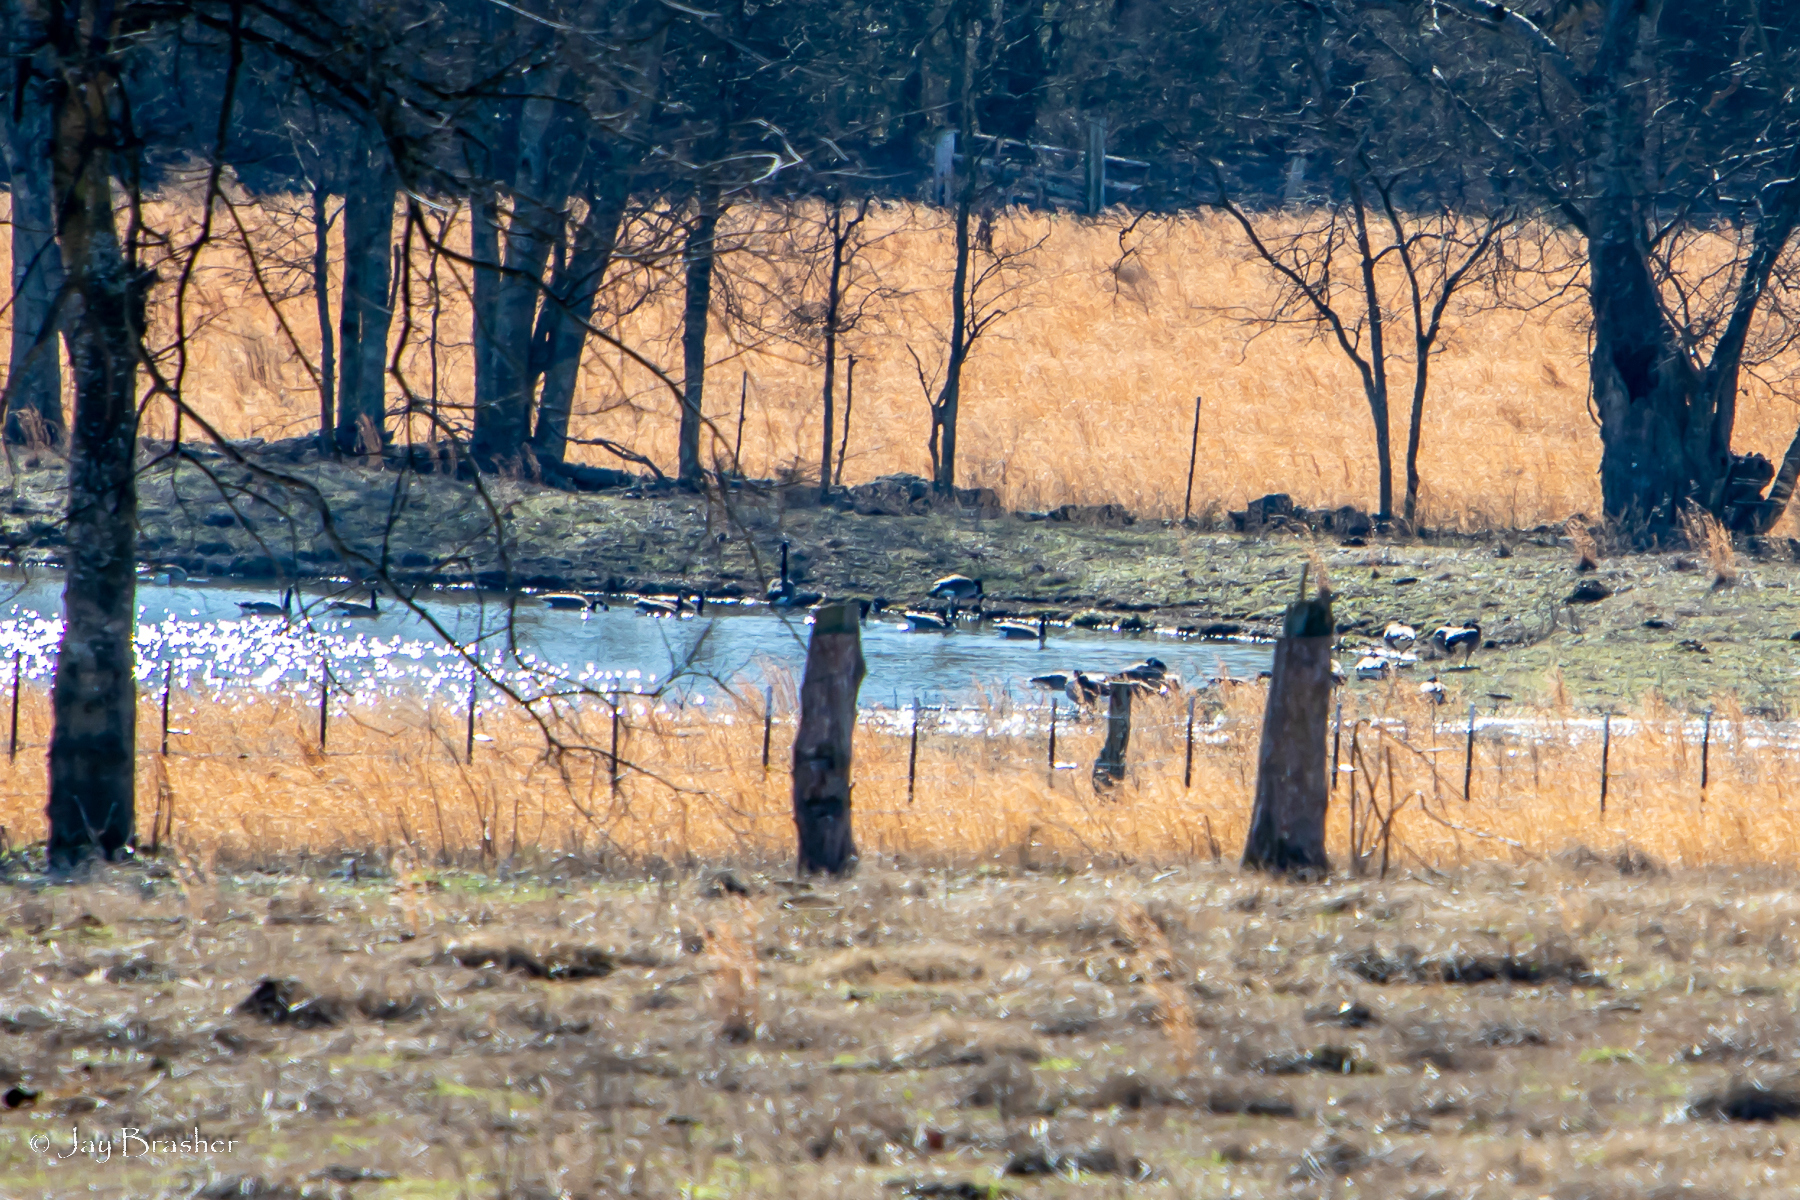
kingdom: Animalia
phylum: Chordata
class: Aves
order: Anseriformes
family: Anatidae
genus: Branta
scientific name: Branta canadensis
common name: Canada goose
